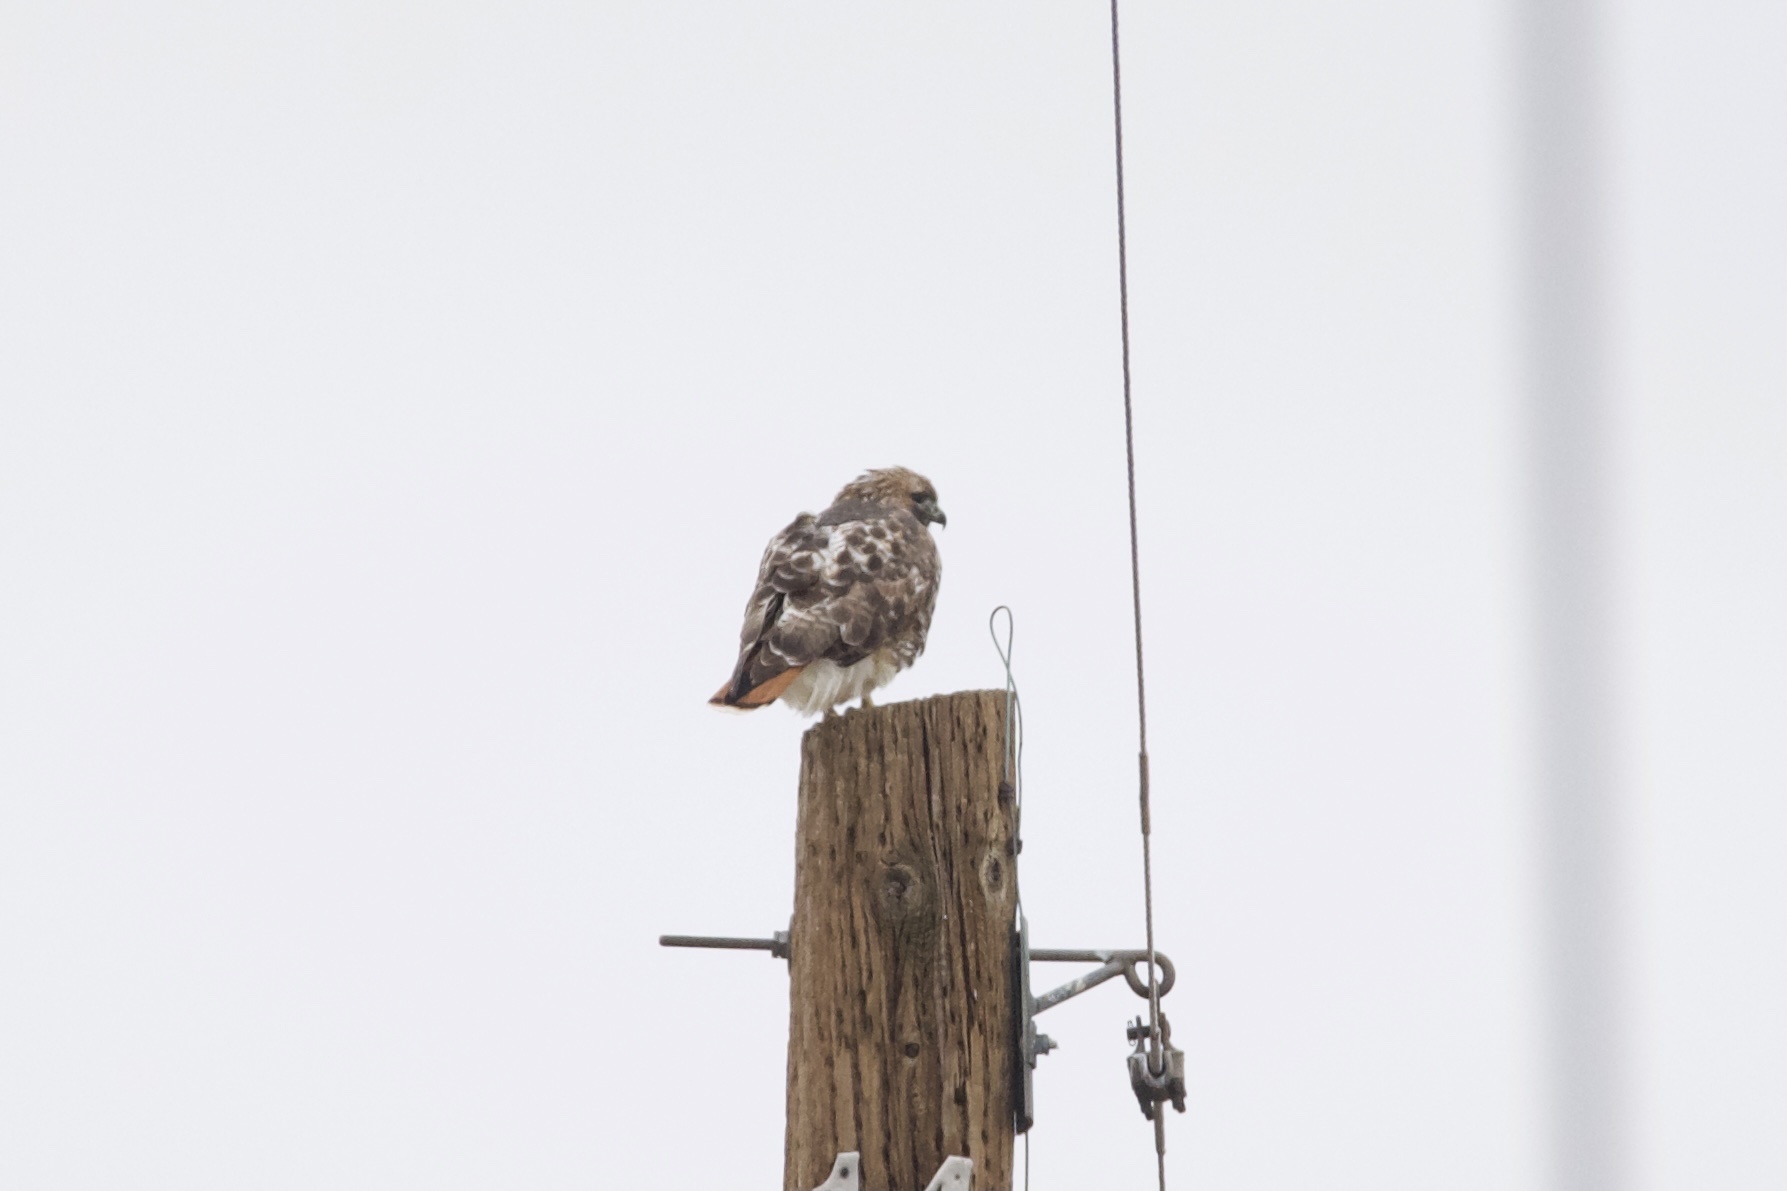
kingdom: Animalia
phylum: Chordata
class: Aves
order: Accipitriformes
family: Accipitridae
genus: Buteo
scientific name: Buteo jamaicensis
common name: Red-tailed hawk
